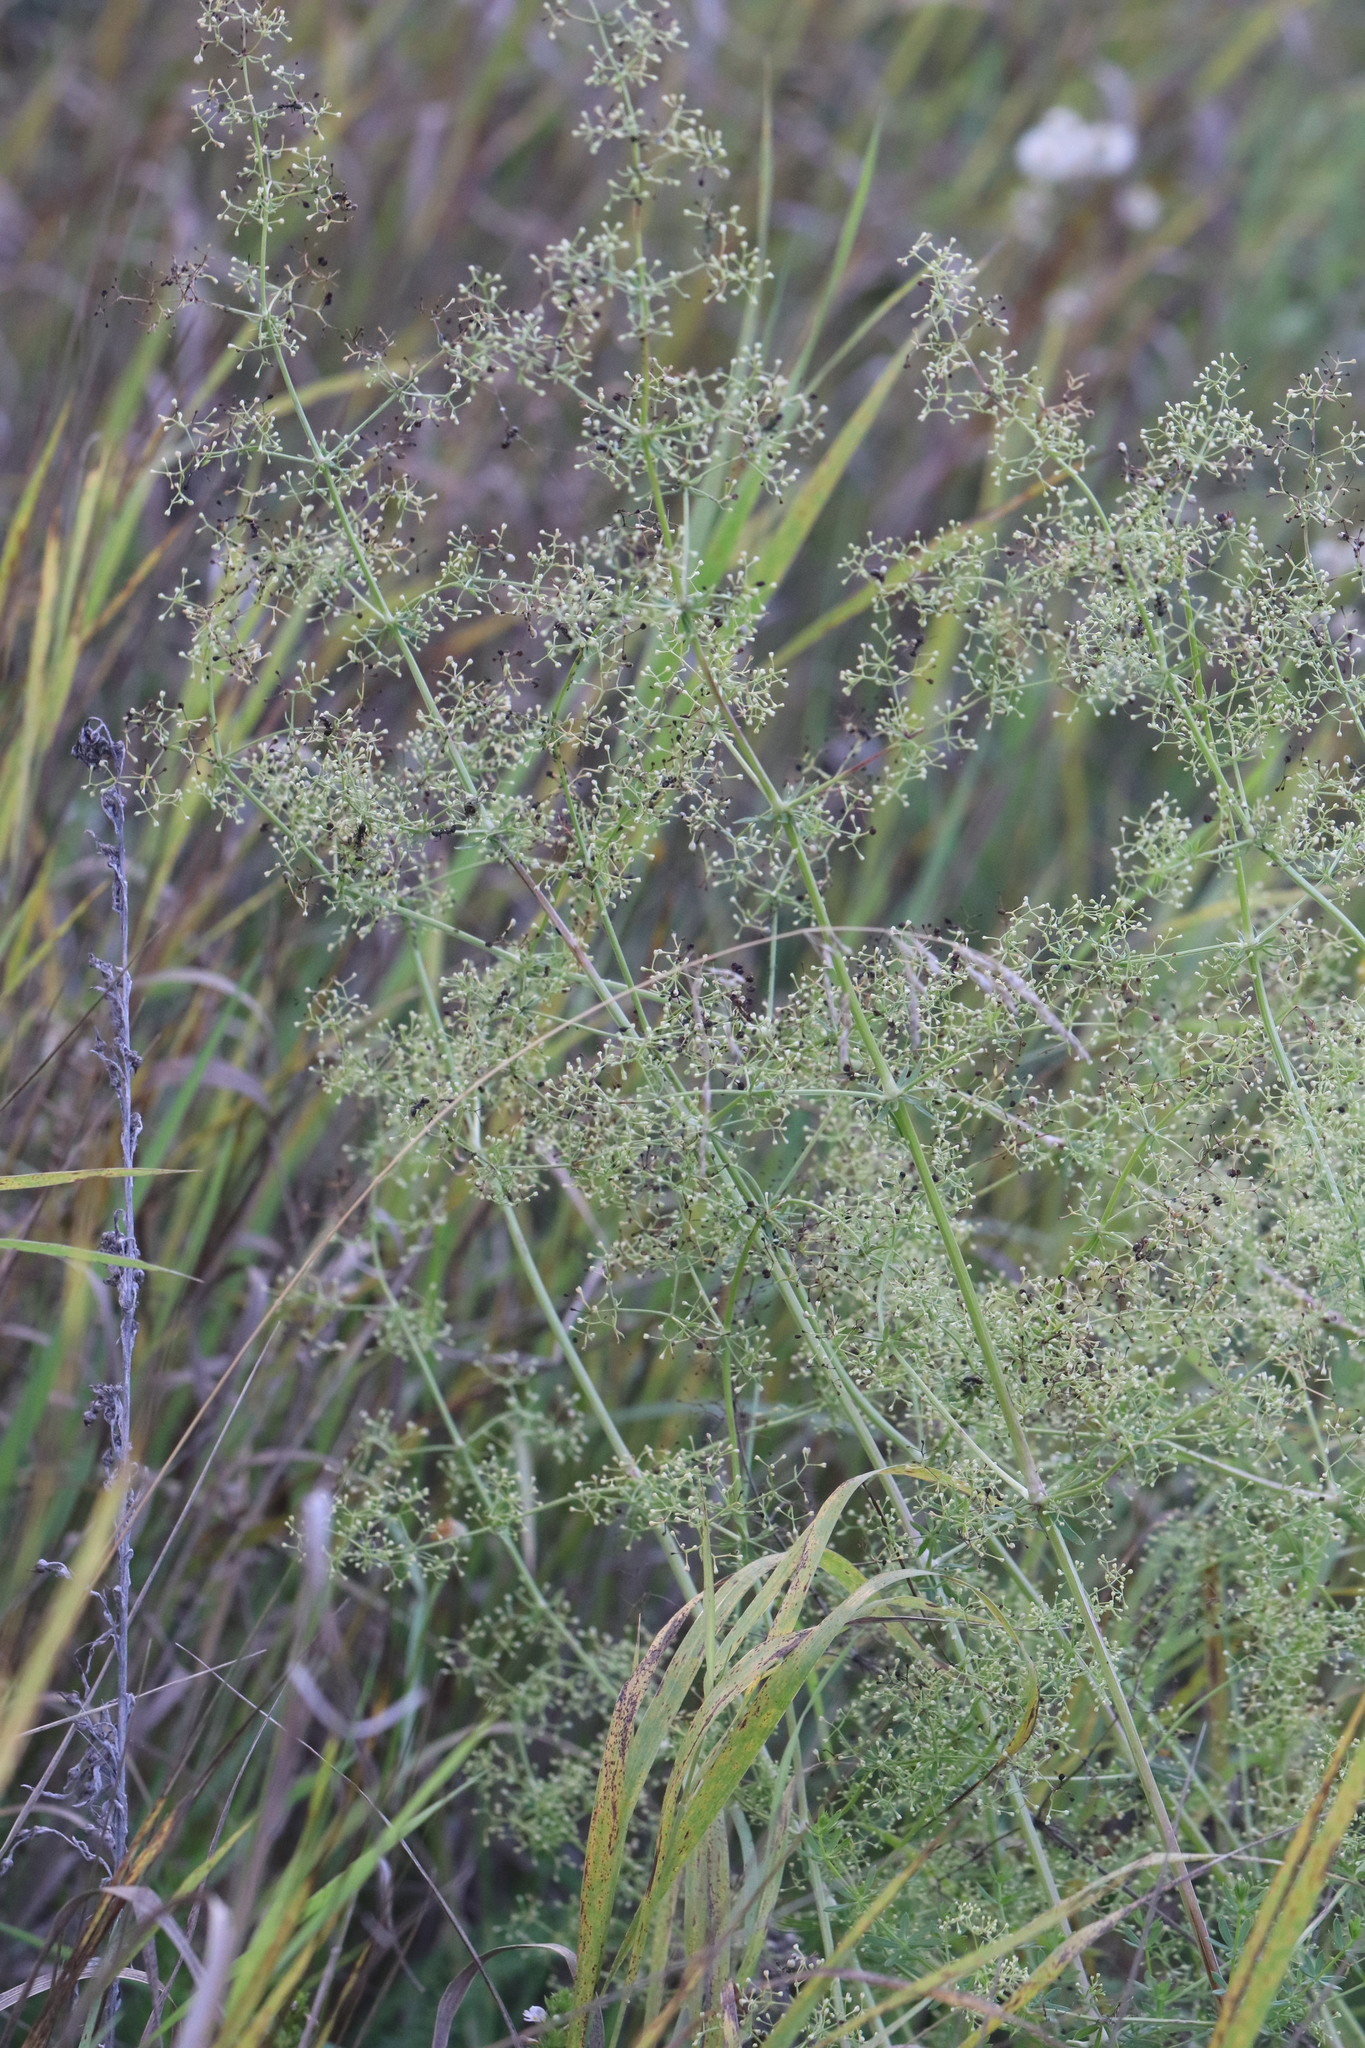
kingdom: Plantae
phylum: Tracheophyta
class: Magnoliopsida
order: Gentianales
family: Rubiaceae
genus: Galium
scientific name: Galium mollugo
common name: Hedge bedstraw
